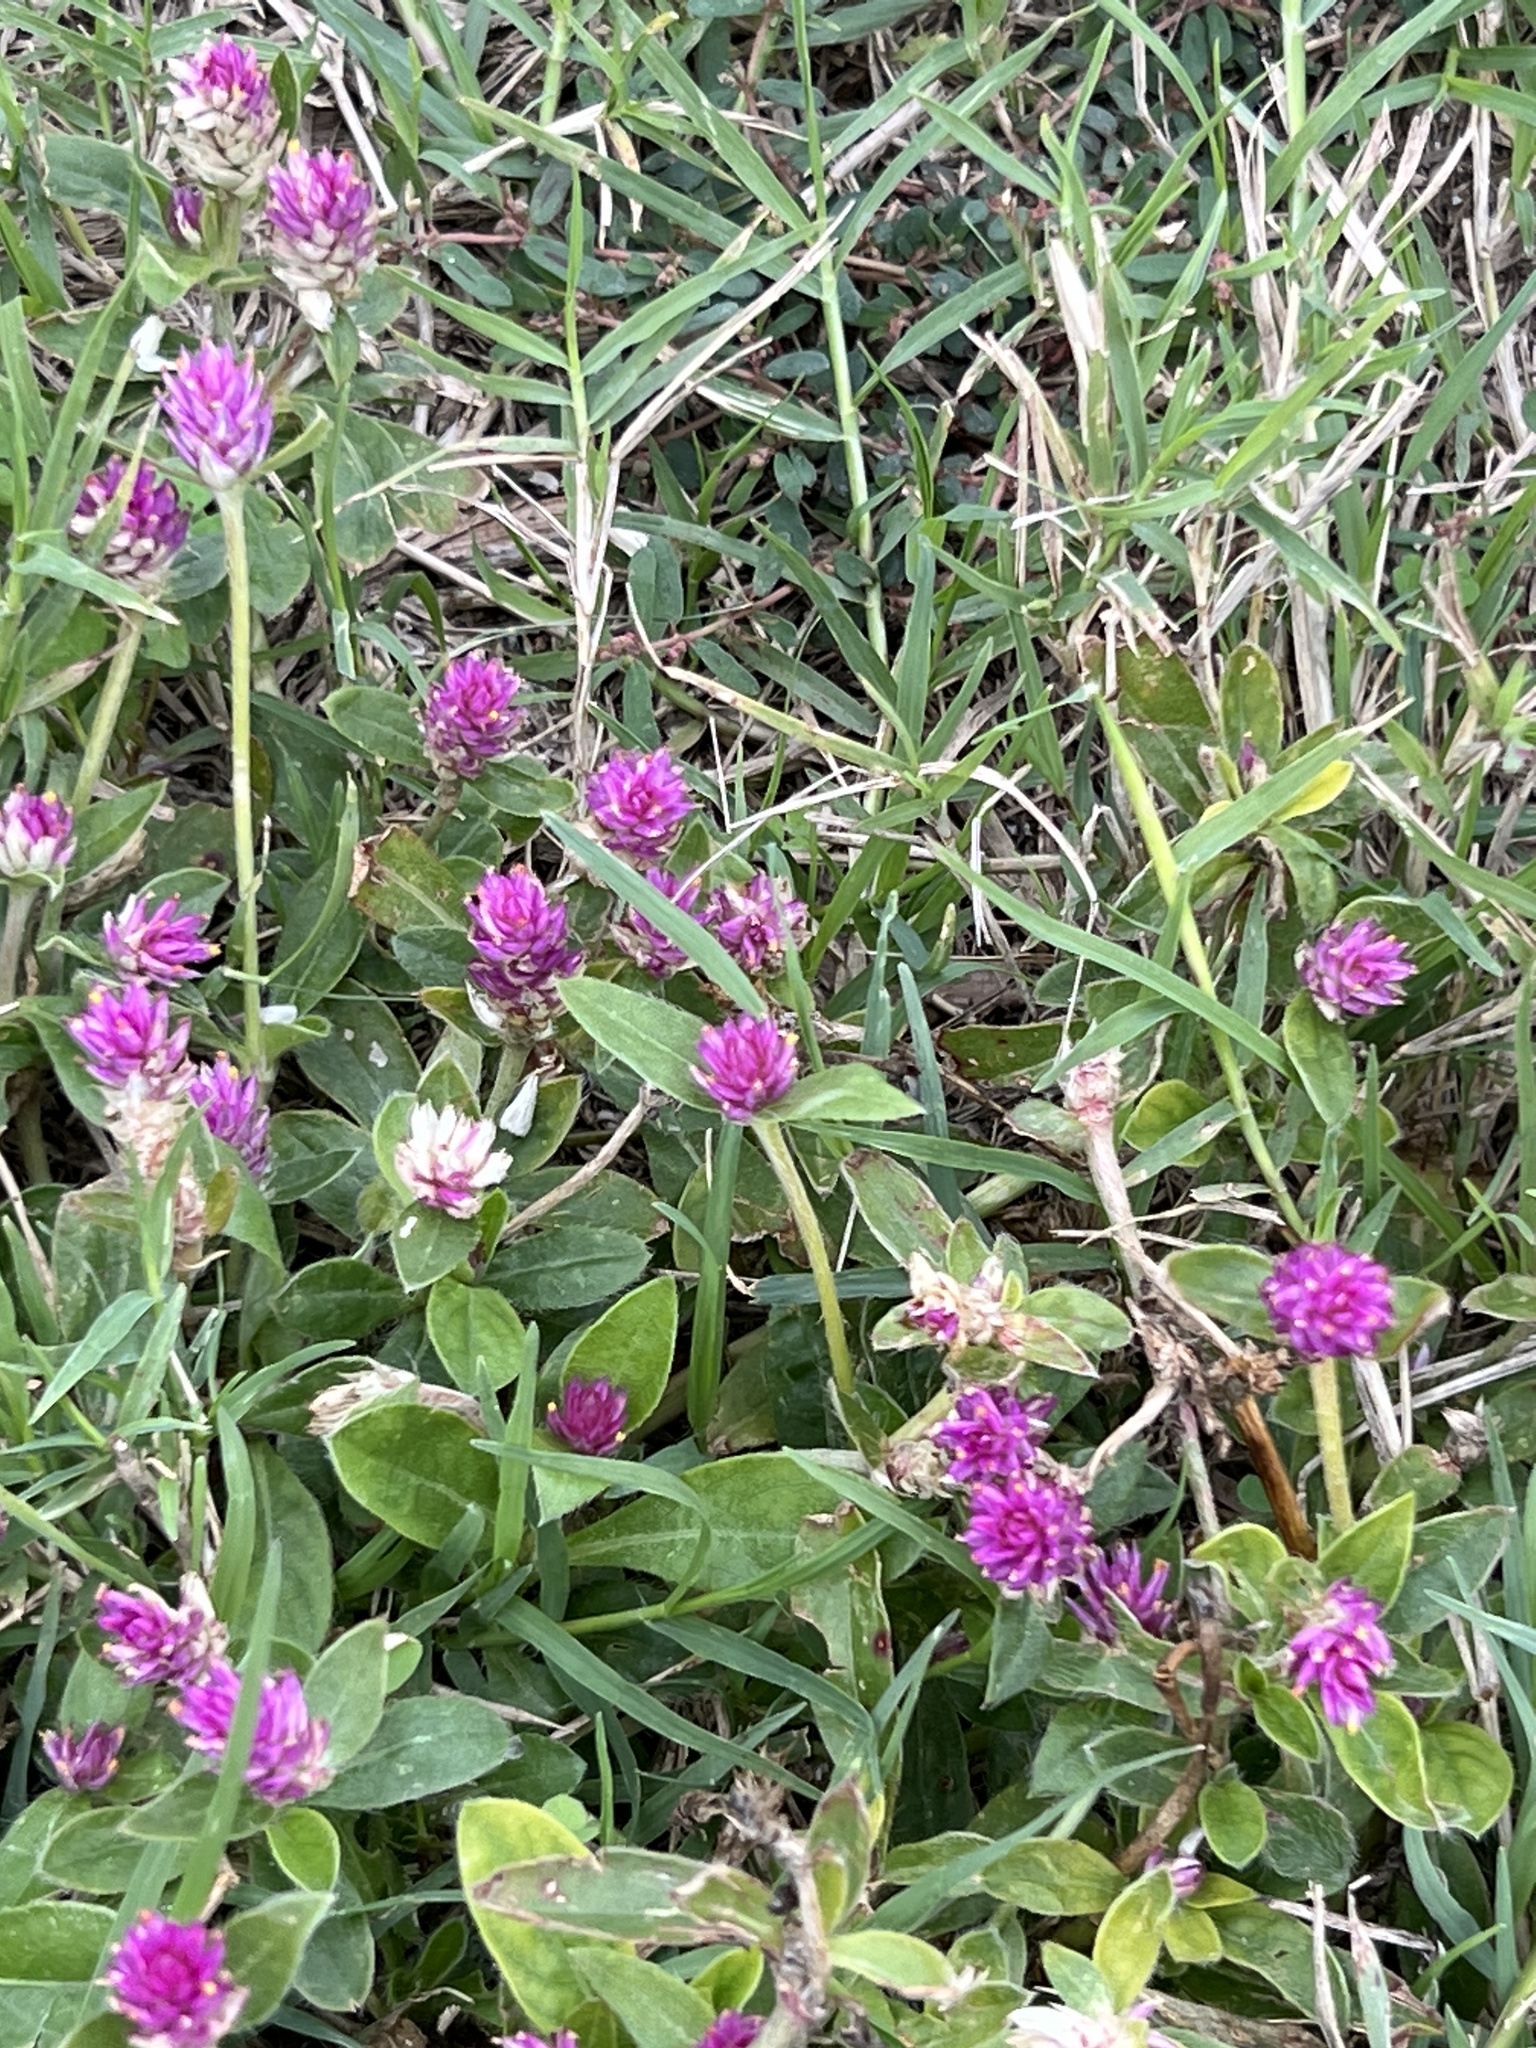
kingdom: Plantae
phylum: Tracheophyta
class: Magnoliopsida
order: Caryophyllales
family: Amaranthaceae
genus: Gomphrena
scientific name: Gomphrena globosa
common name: Common globe amaranth
